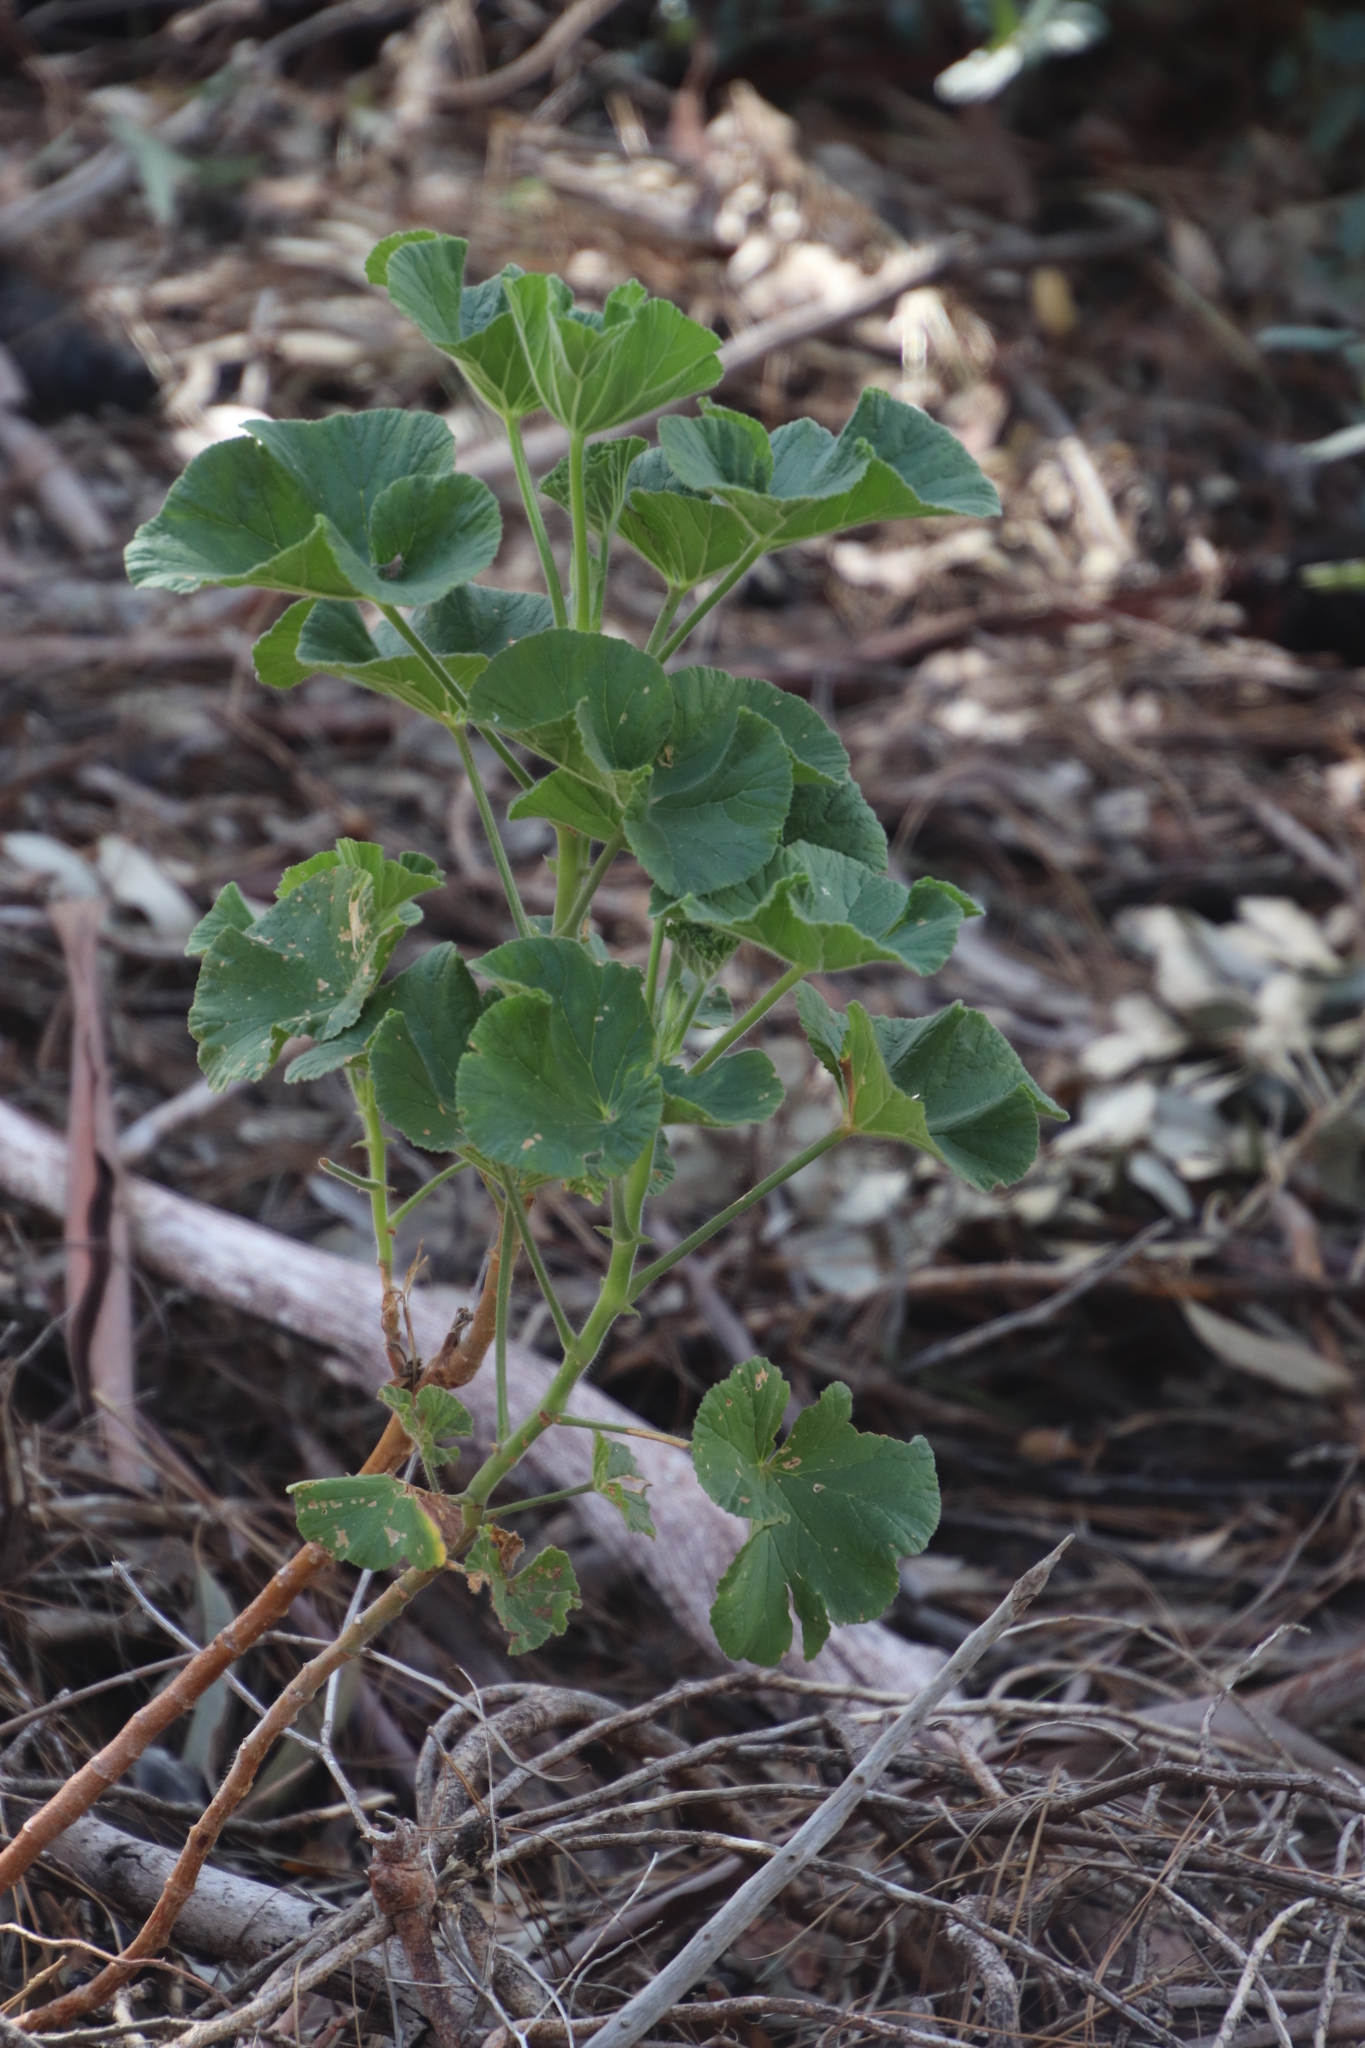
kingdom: Plantae
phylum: Tracheophyta
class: Magnoliopsida
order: Geraniales
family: Geraniaceae
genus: Pelargonium
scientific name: Pelargonium cucullatum
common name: Tree pelargonium
